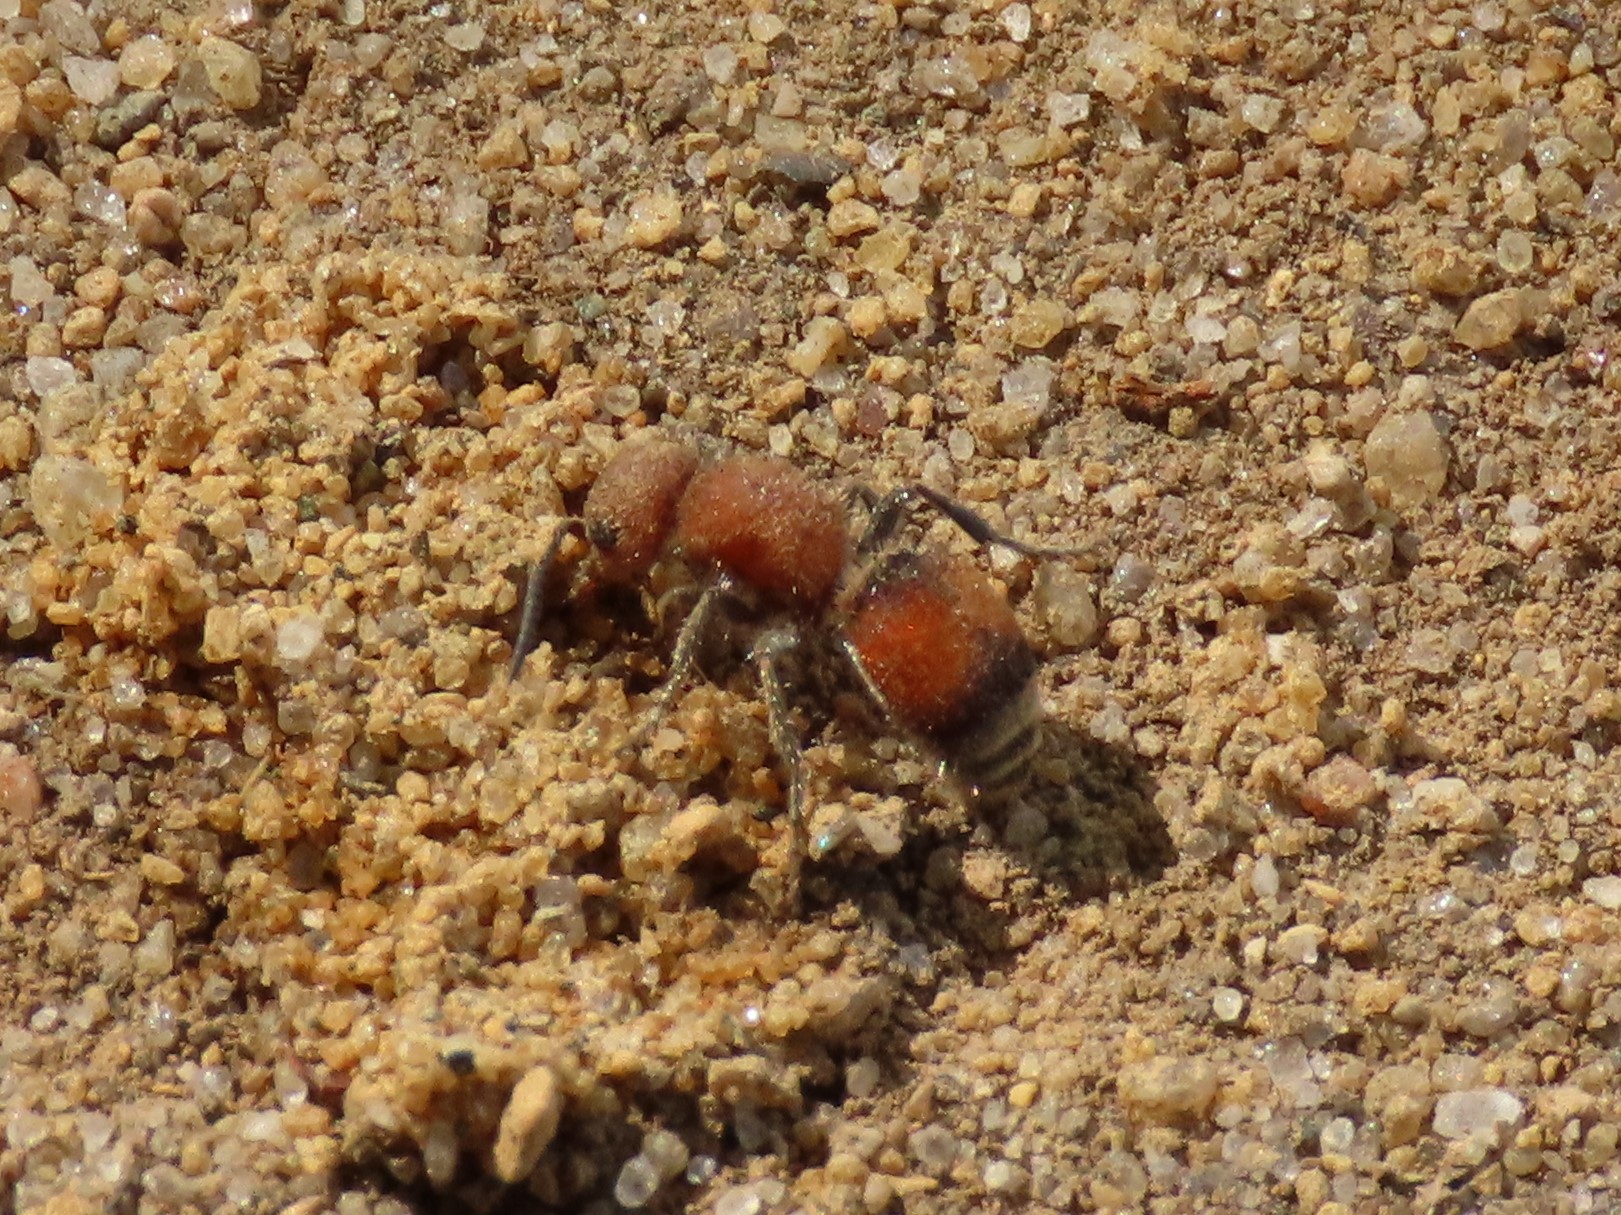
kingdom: Animalia
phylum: Arthropoda
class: Insecta
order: Hymenoptera
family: Mutillidae
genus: Pseudomethoca
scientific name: Pseudomethoca
